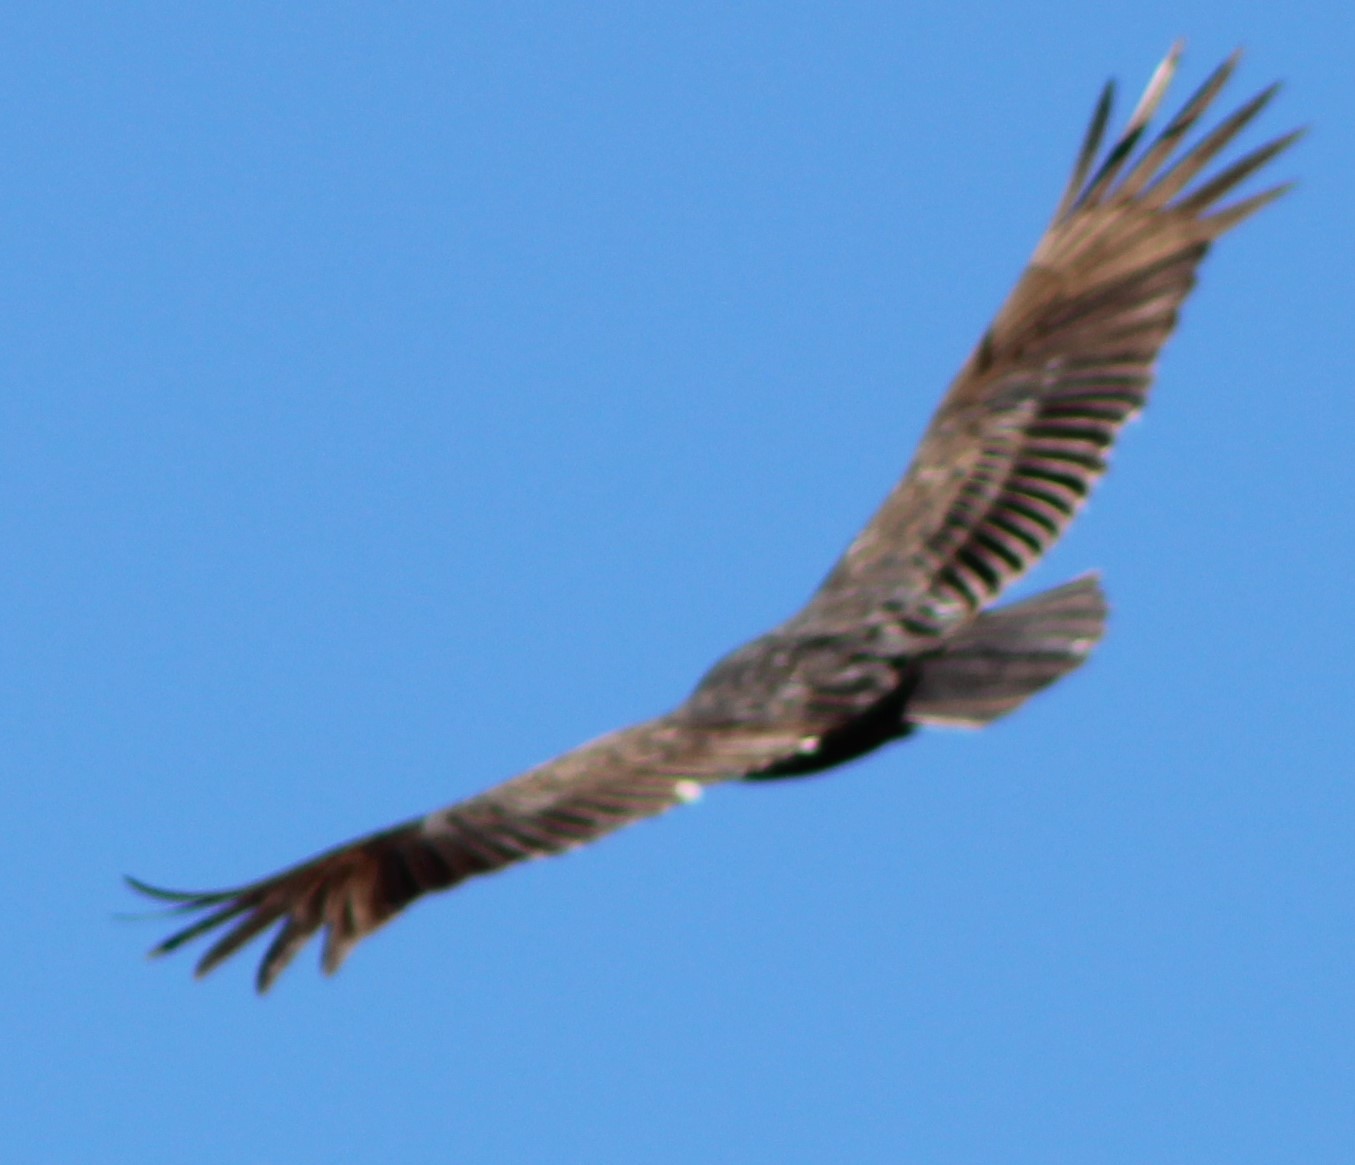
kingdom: Animalia
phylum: Chordata
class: Aves
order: Accipitriformes
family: Cathartidae
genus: Cathartes
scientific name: Cathartes aura
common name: Turkey vulture
